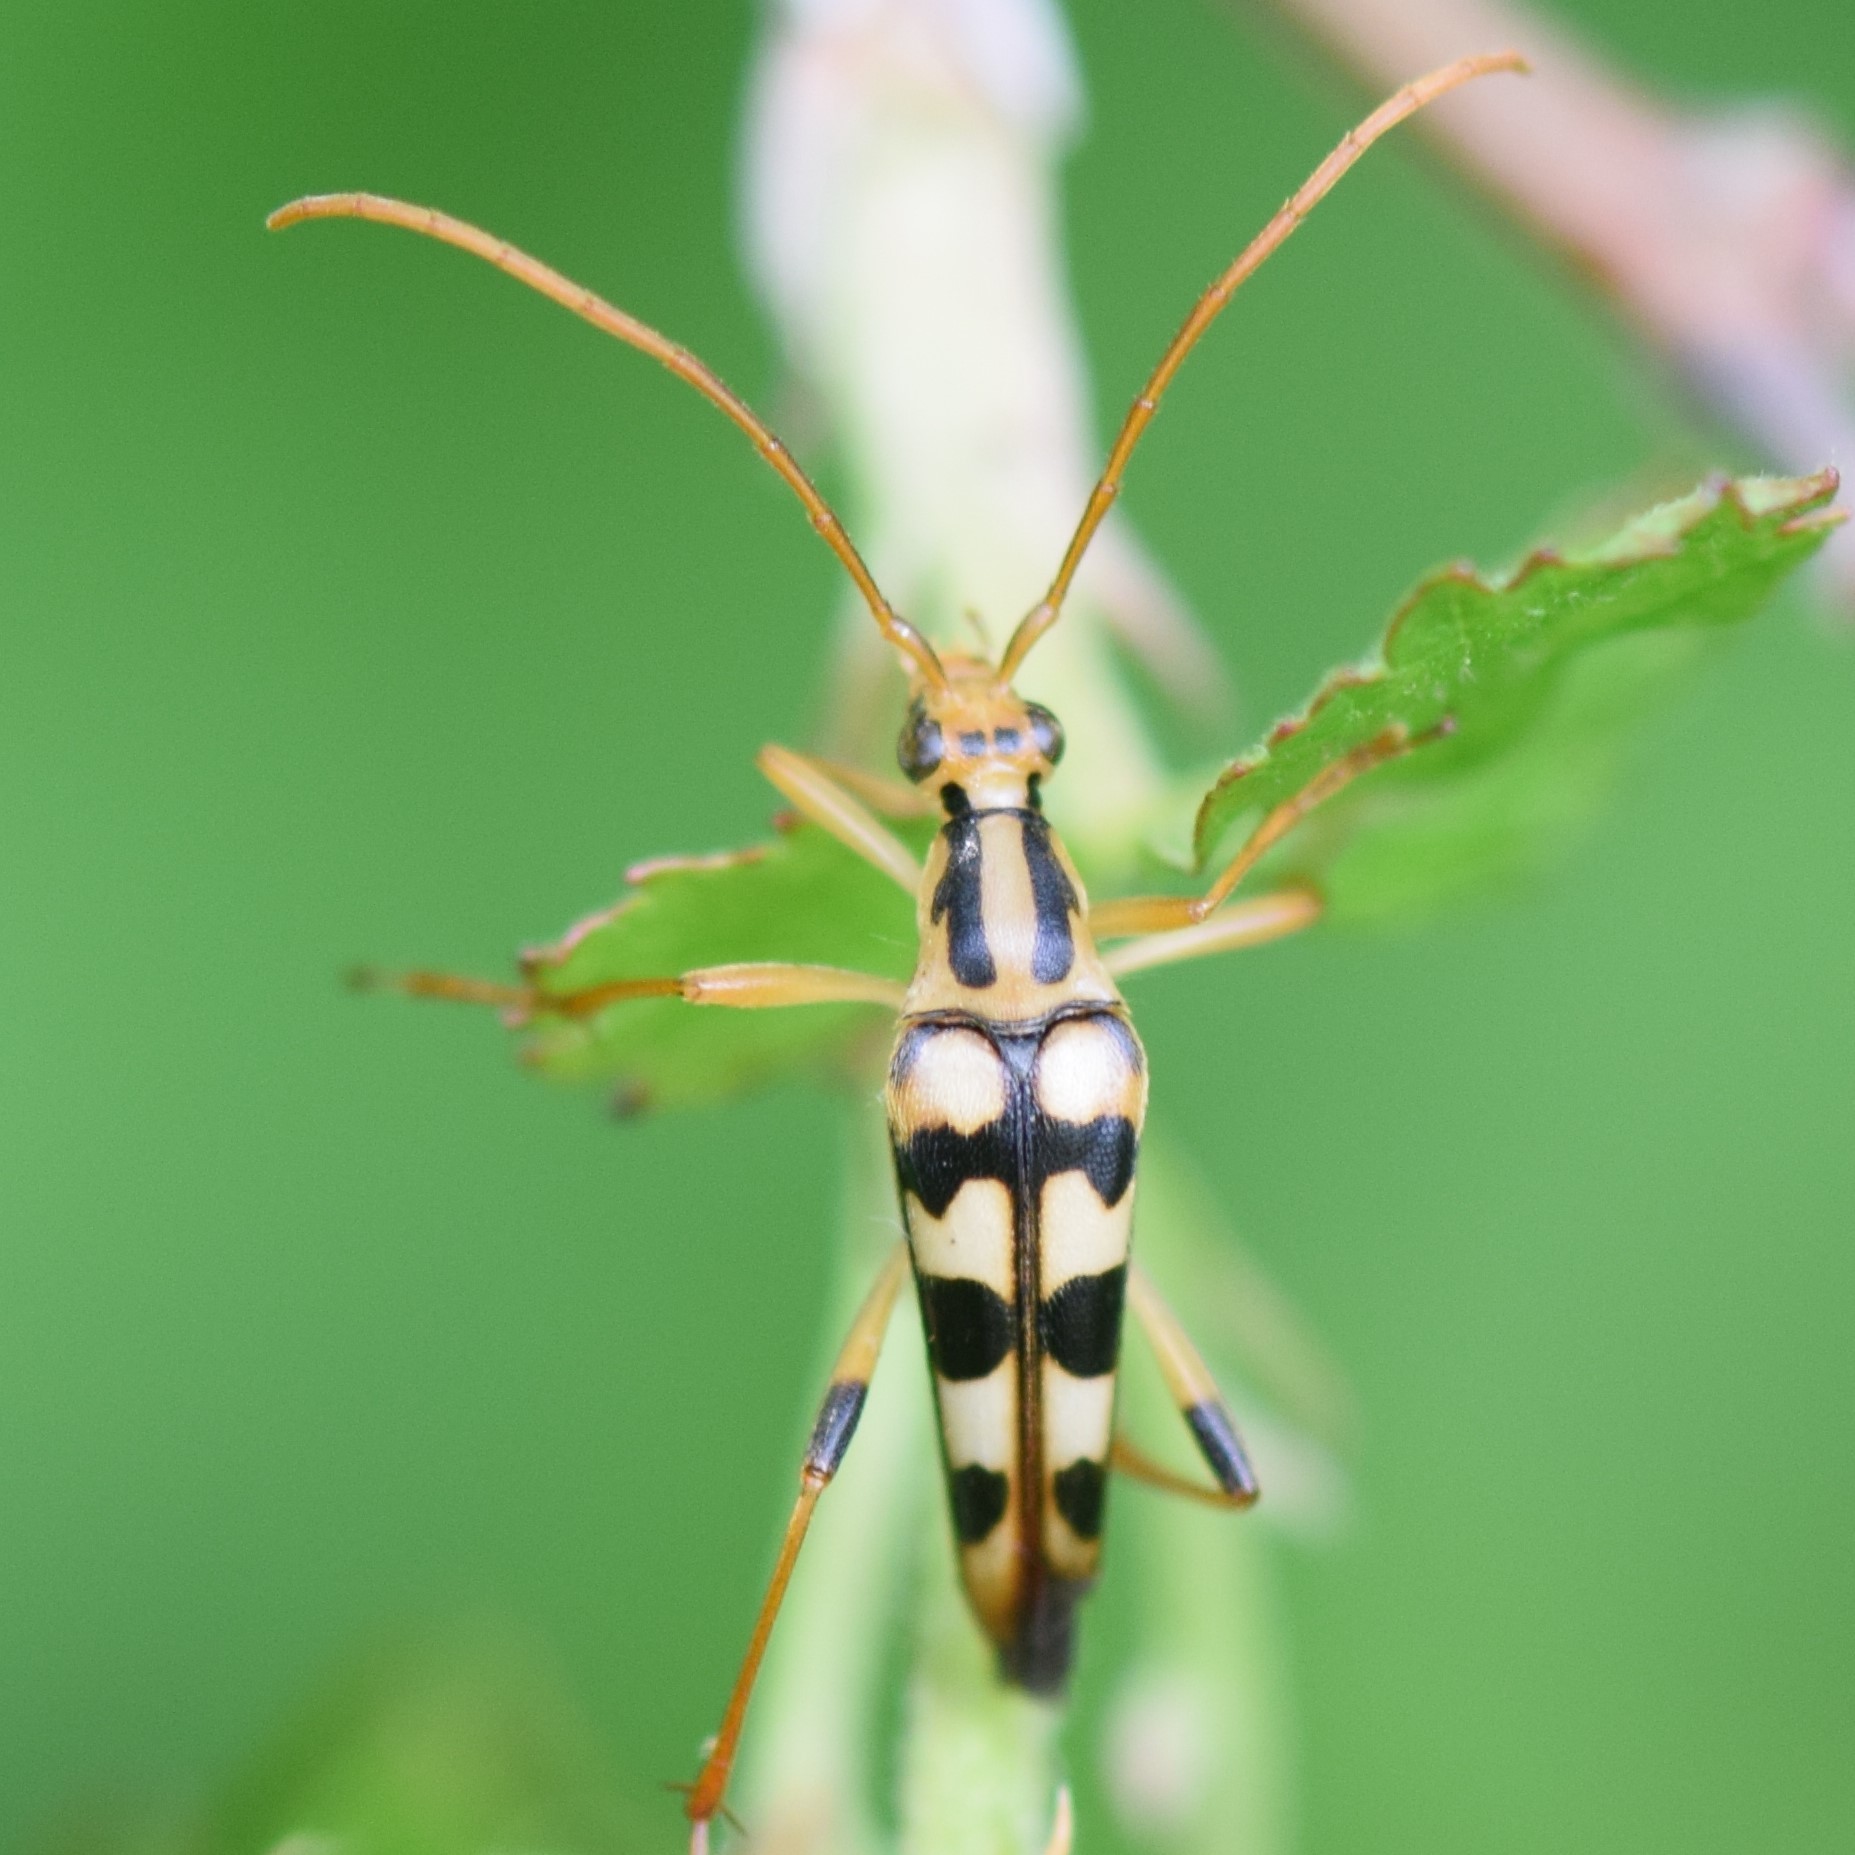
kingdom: Animalia
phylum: Arthropoda
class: Insecta
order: Coleoptera
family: Cerambycidae
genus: Strangalia
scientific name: Strangalia luteicornis
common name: Yellow-horned flower longhorn beetle
